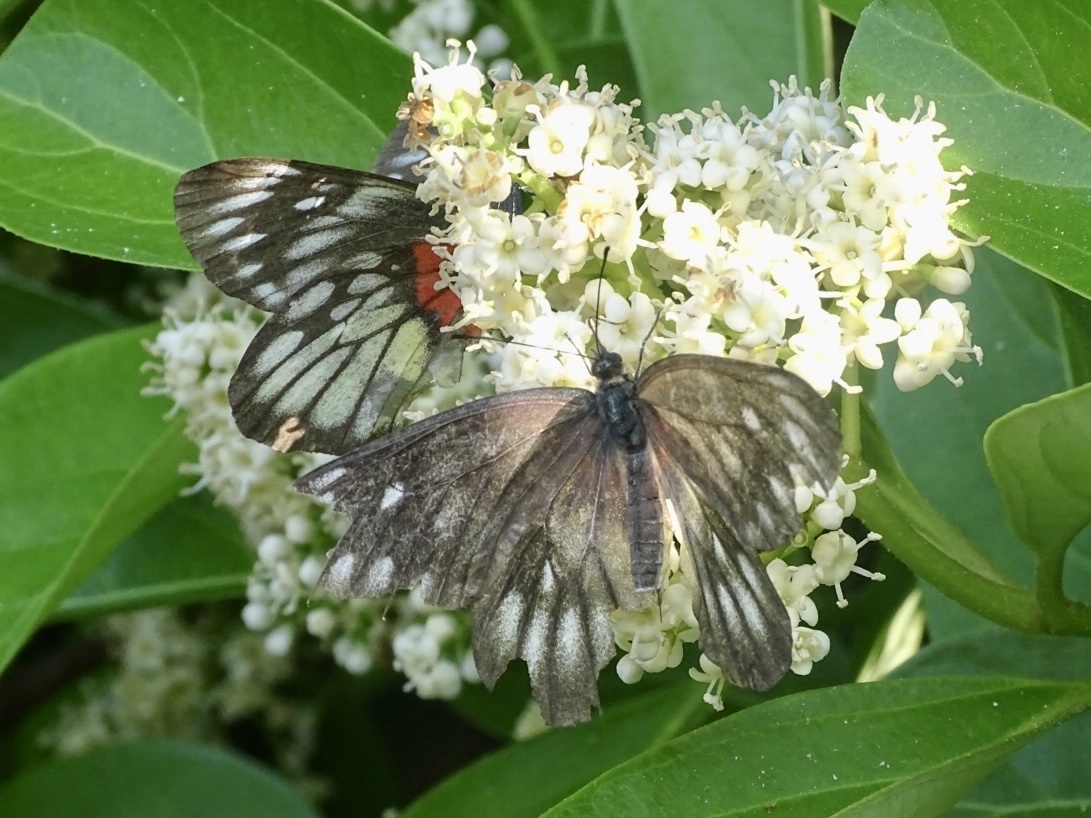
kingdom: Animalia
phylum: Arthropoda
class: Insecta
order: Lepidoptera
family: Pieridae
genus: Delias
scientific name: Delias pasithoe
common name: Red-base jezebel
